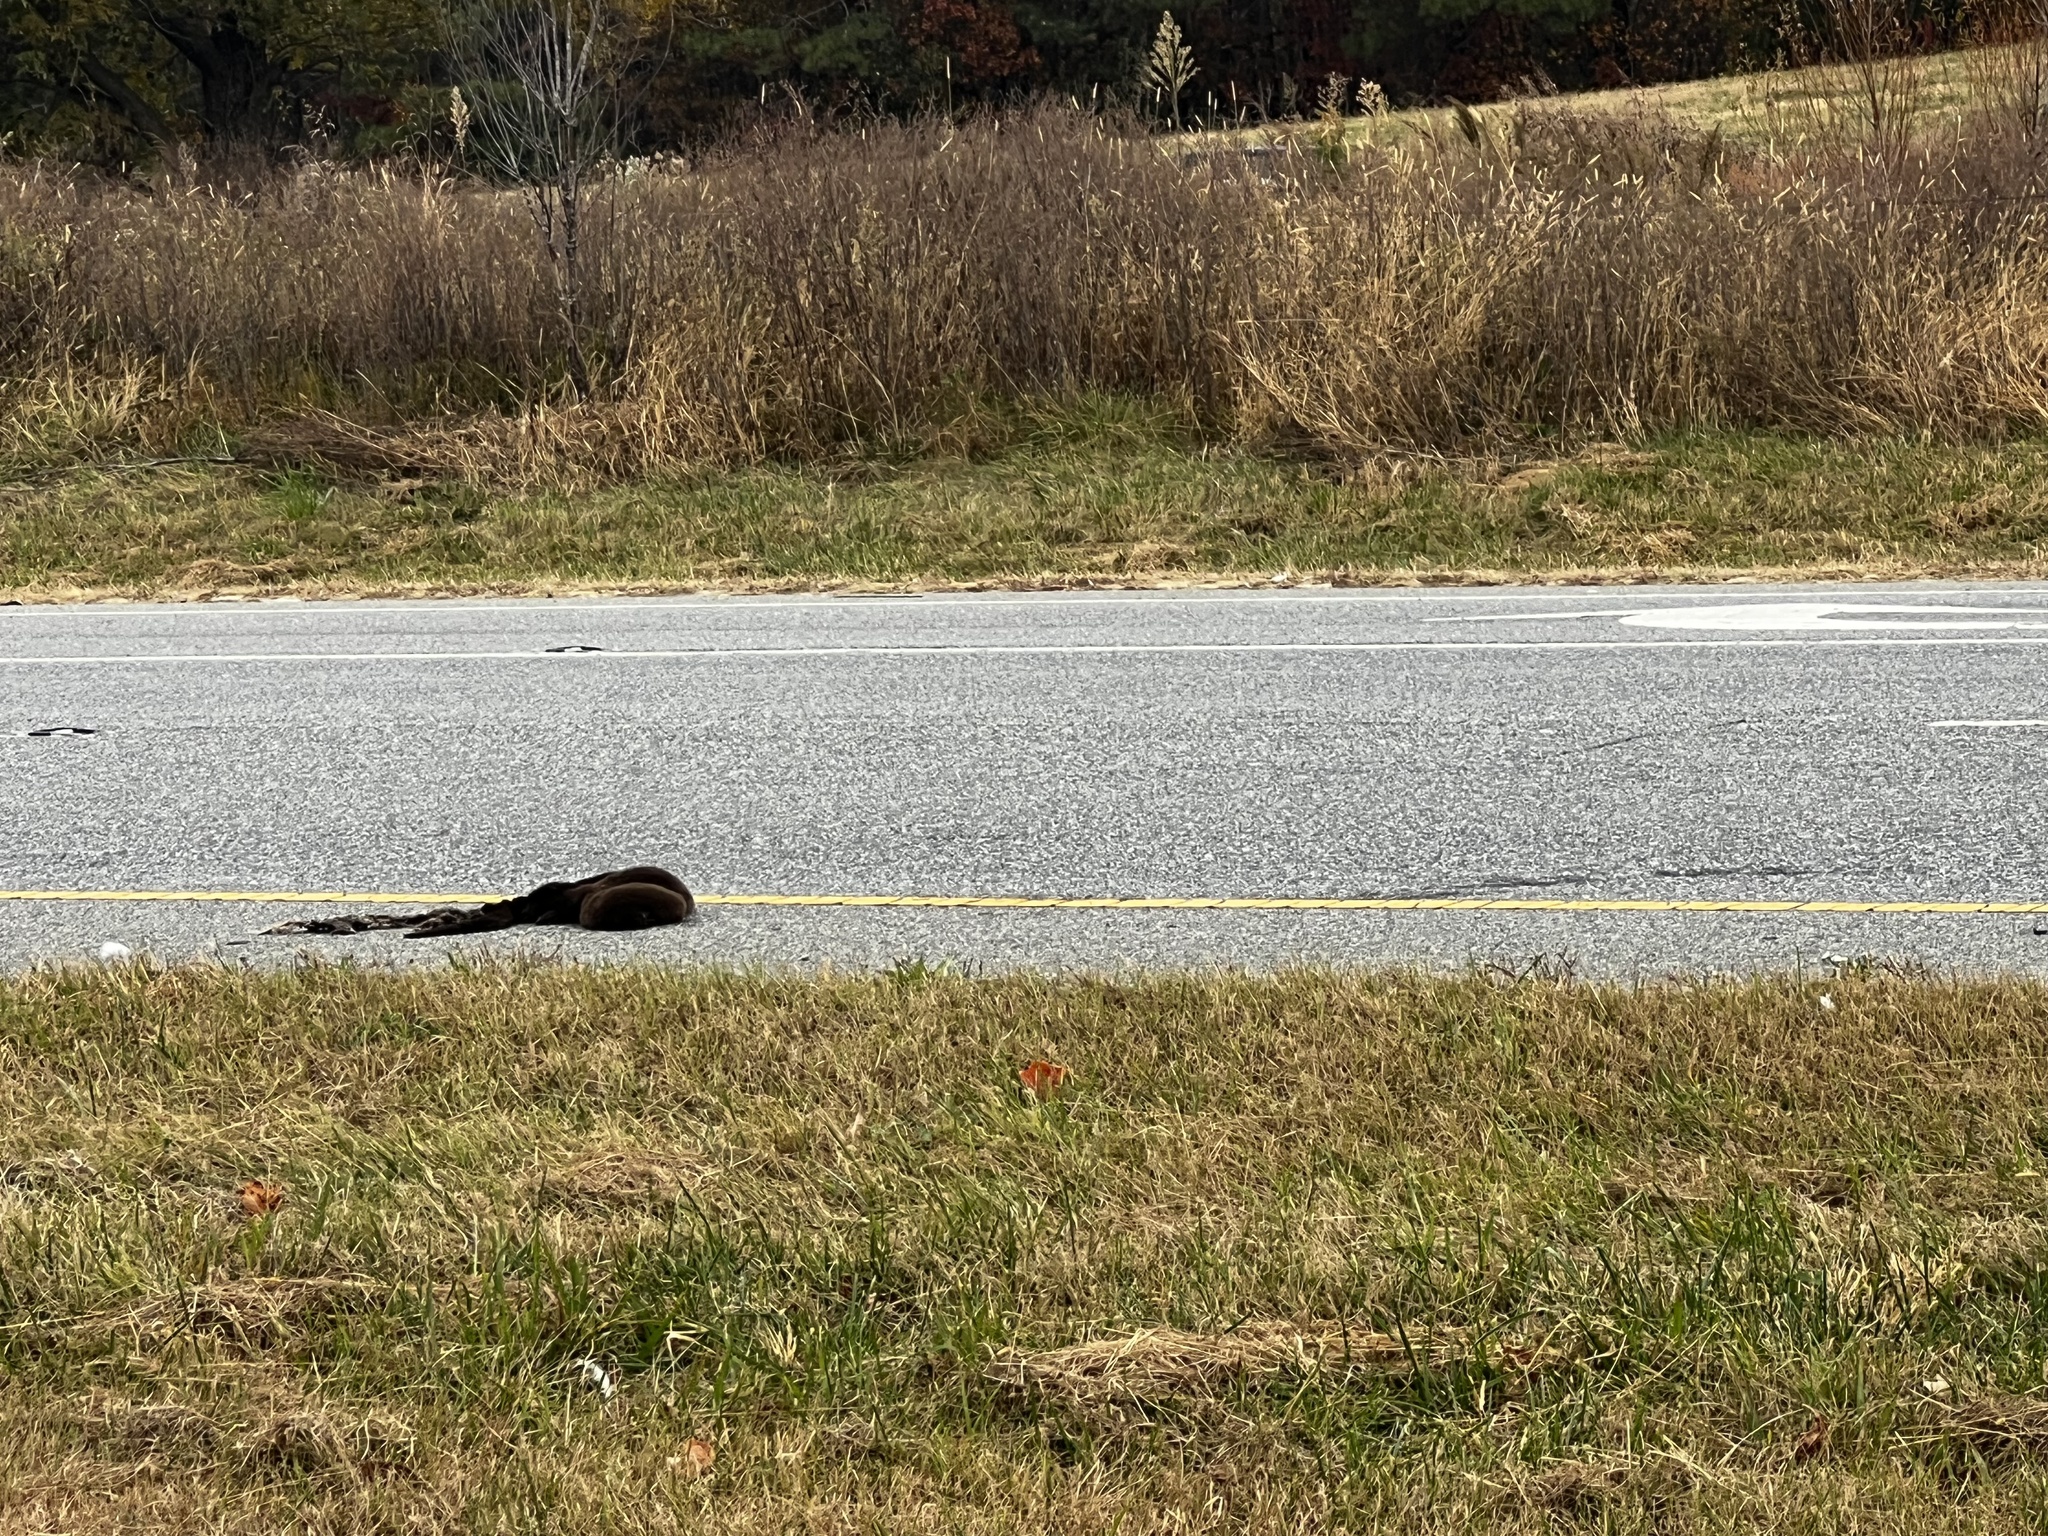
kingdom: Animalia
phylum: Chordata
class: Mammalia
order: Carnivora
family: Mustelidae
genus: Lontra
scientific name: Lontra canadensis
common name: North american river otter
